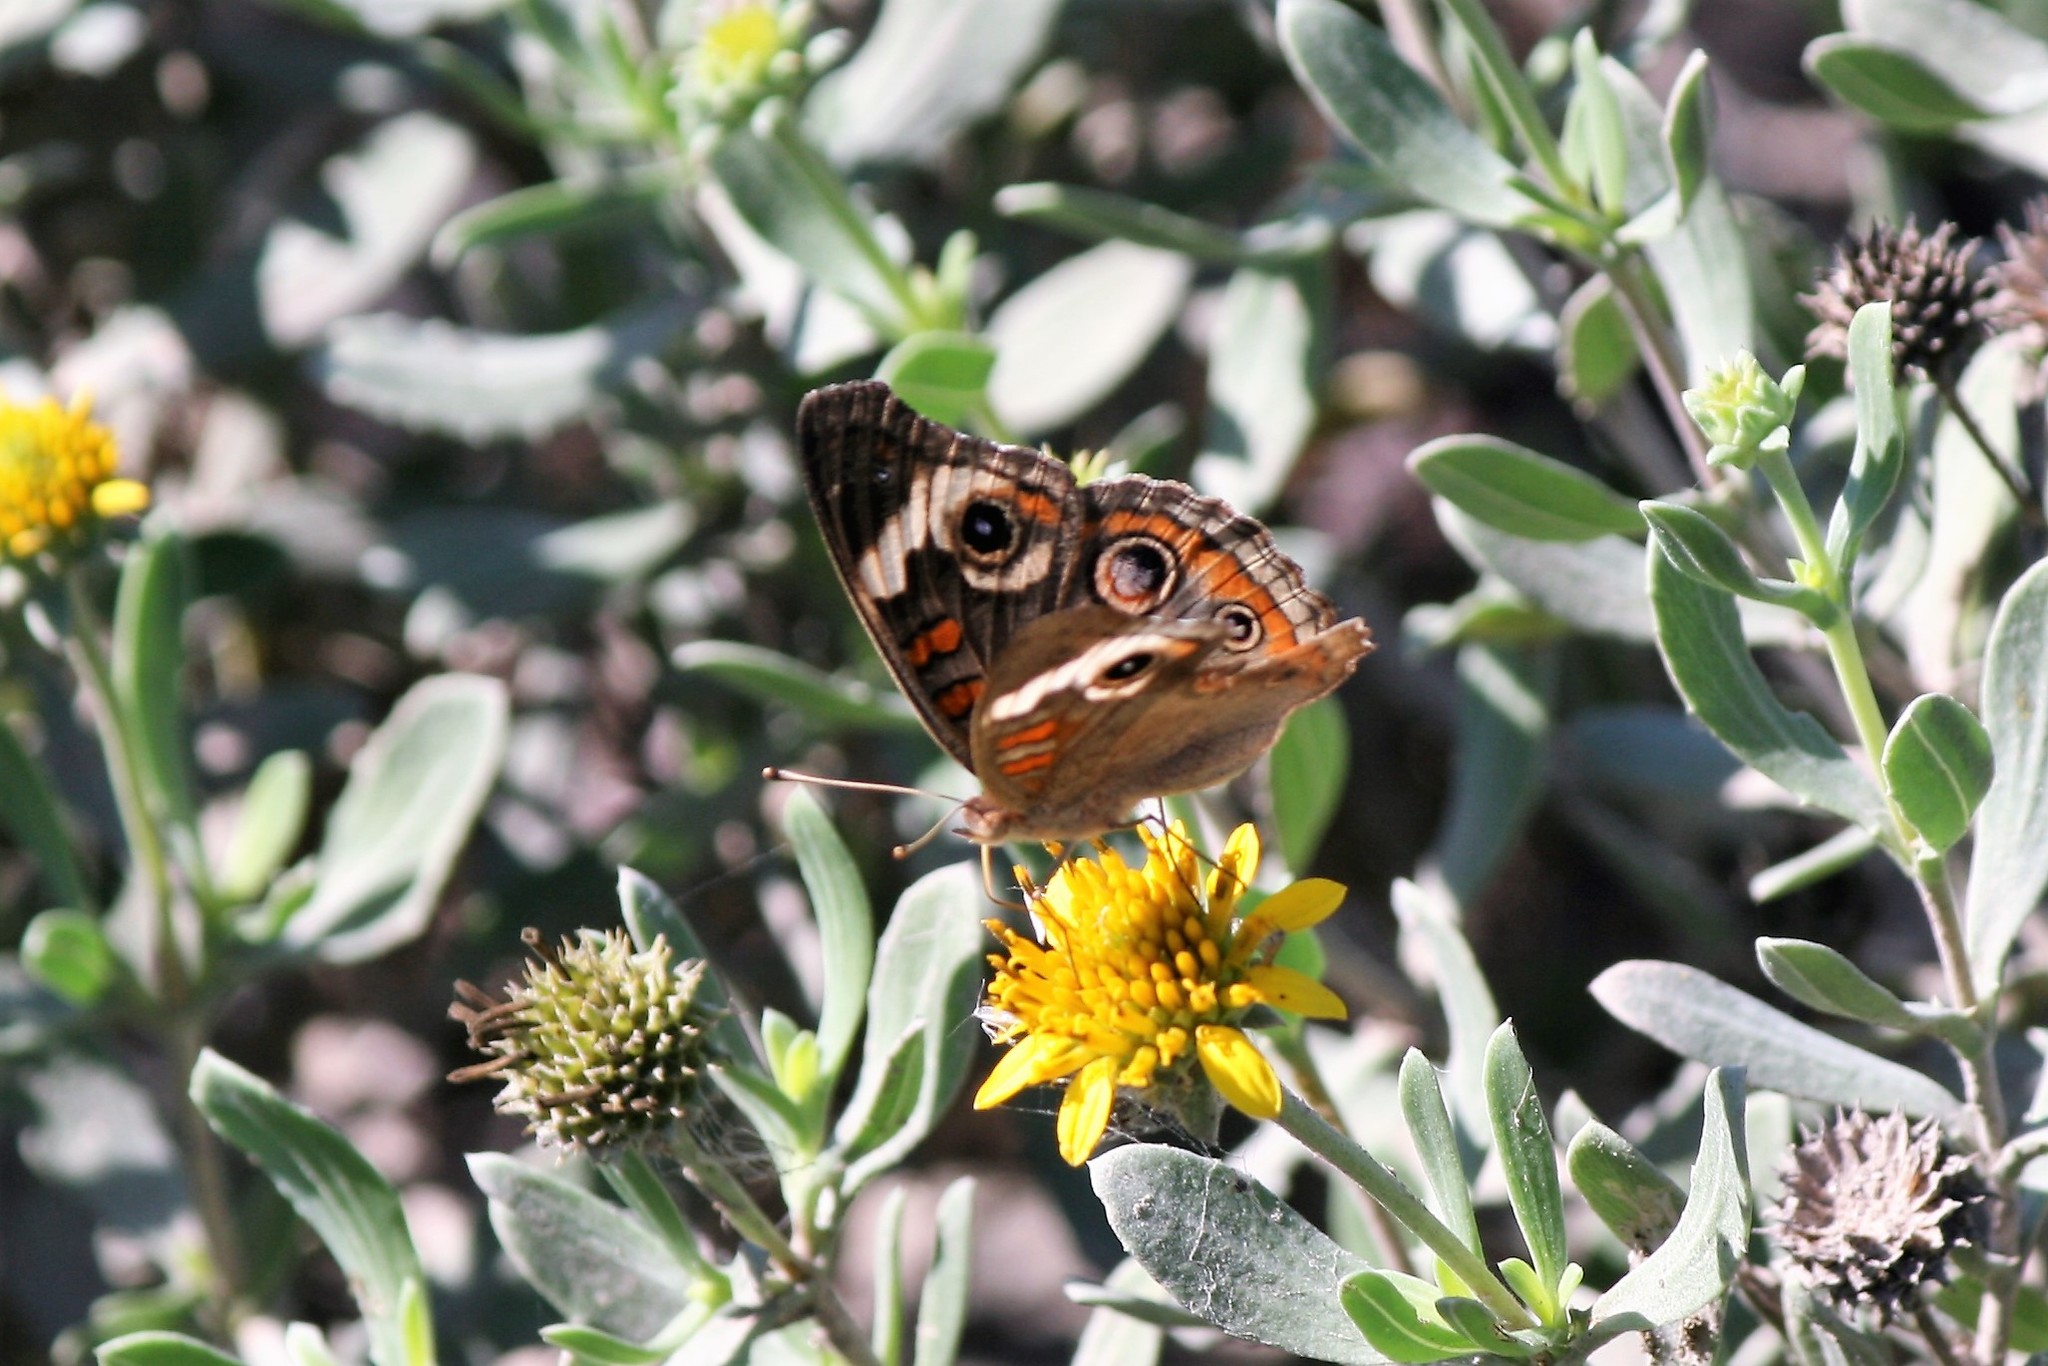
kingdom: Animalia
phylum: Arthropoda
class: Insecta
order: Lepidoptera
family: Nymphalidae
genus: Junonia
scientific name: Junonia coenia
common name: Common buckeye
